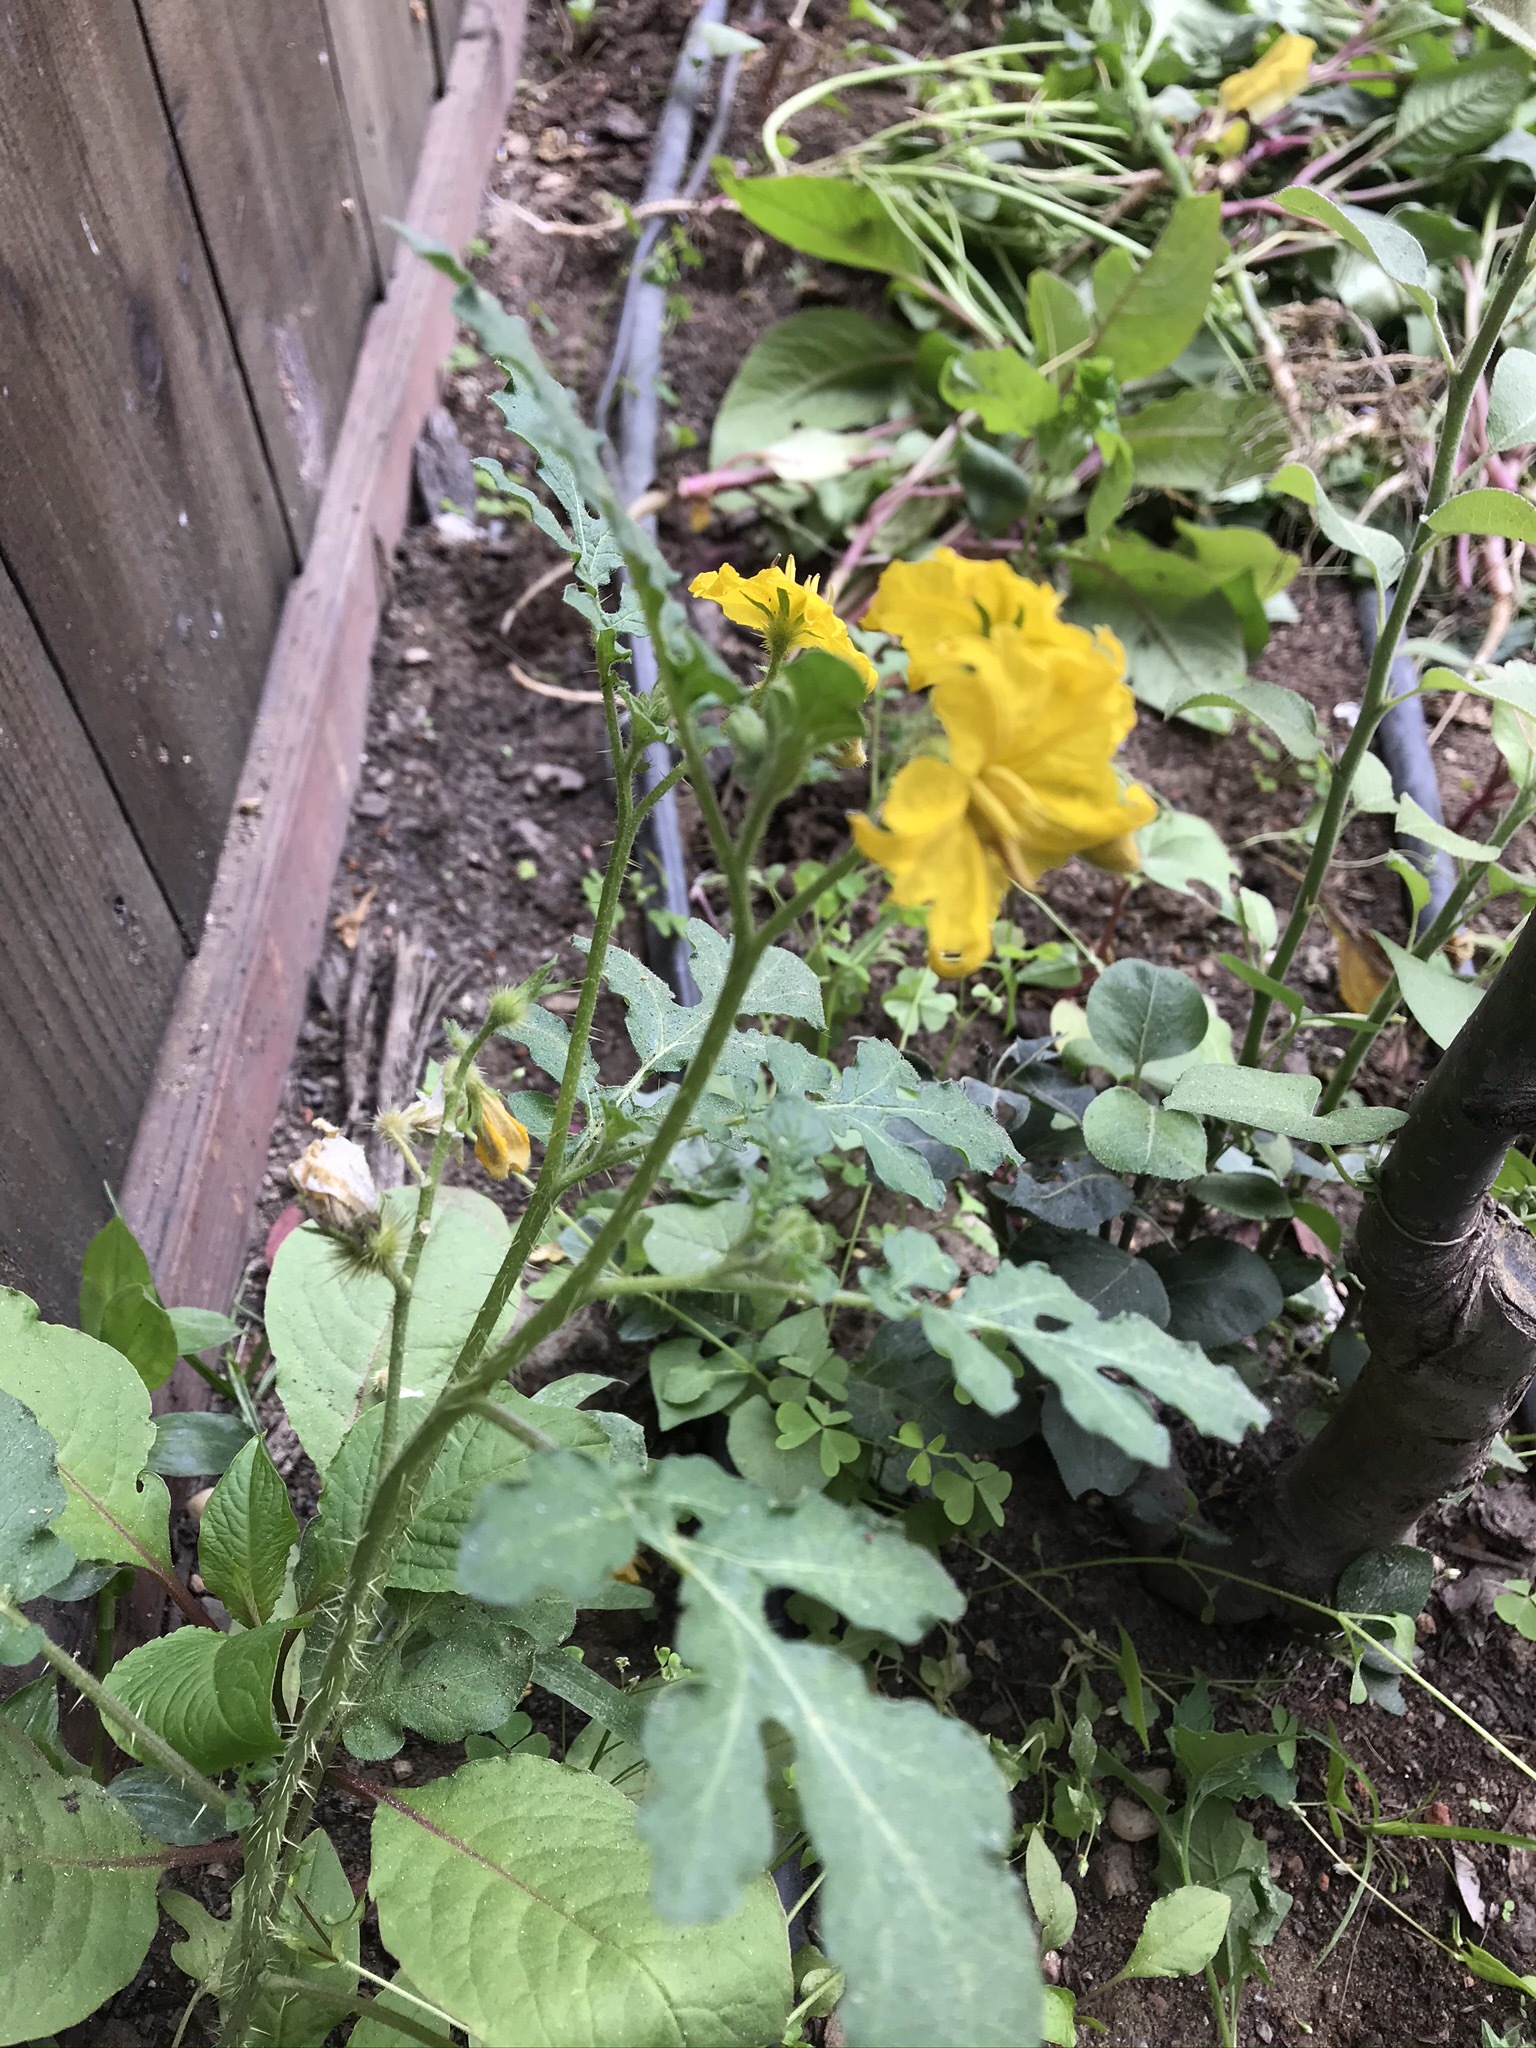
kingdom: Plantae
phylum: Tracheophyta
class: Magnoliopsida
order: Solanales
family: Solanaceae
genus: Solanum
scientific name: Solanum angustifolium
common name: Buffalobur nightshade
